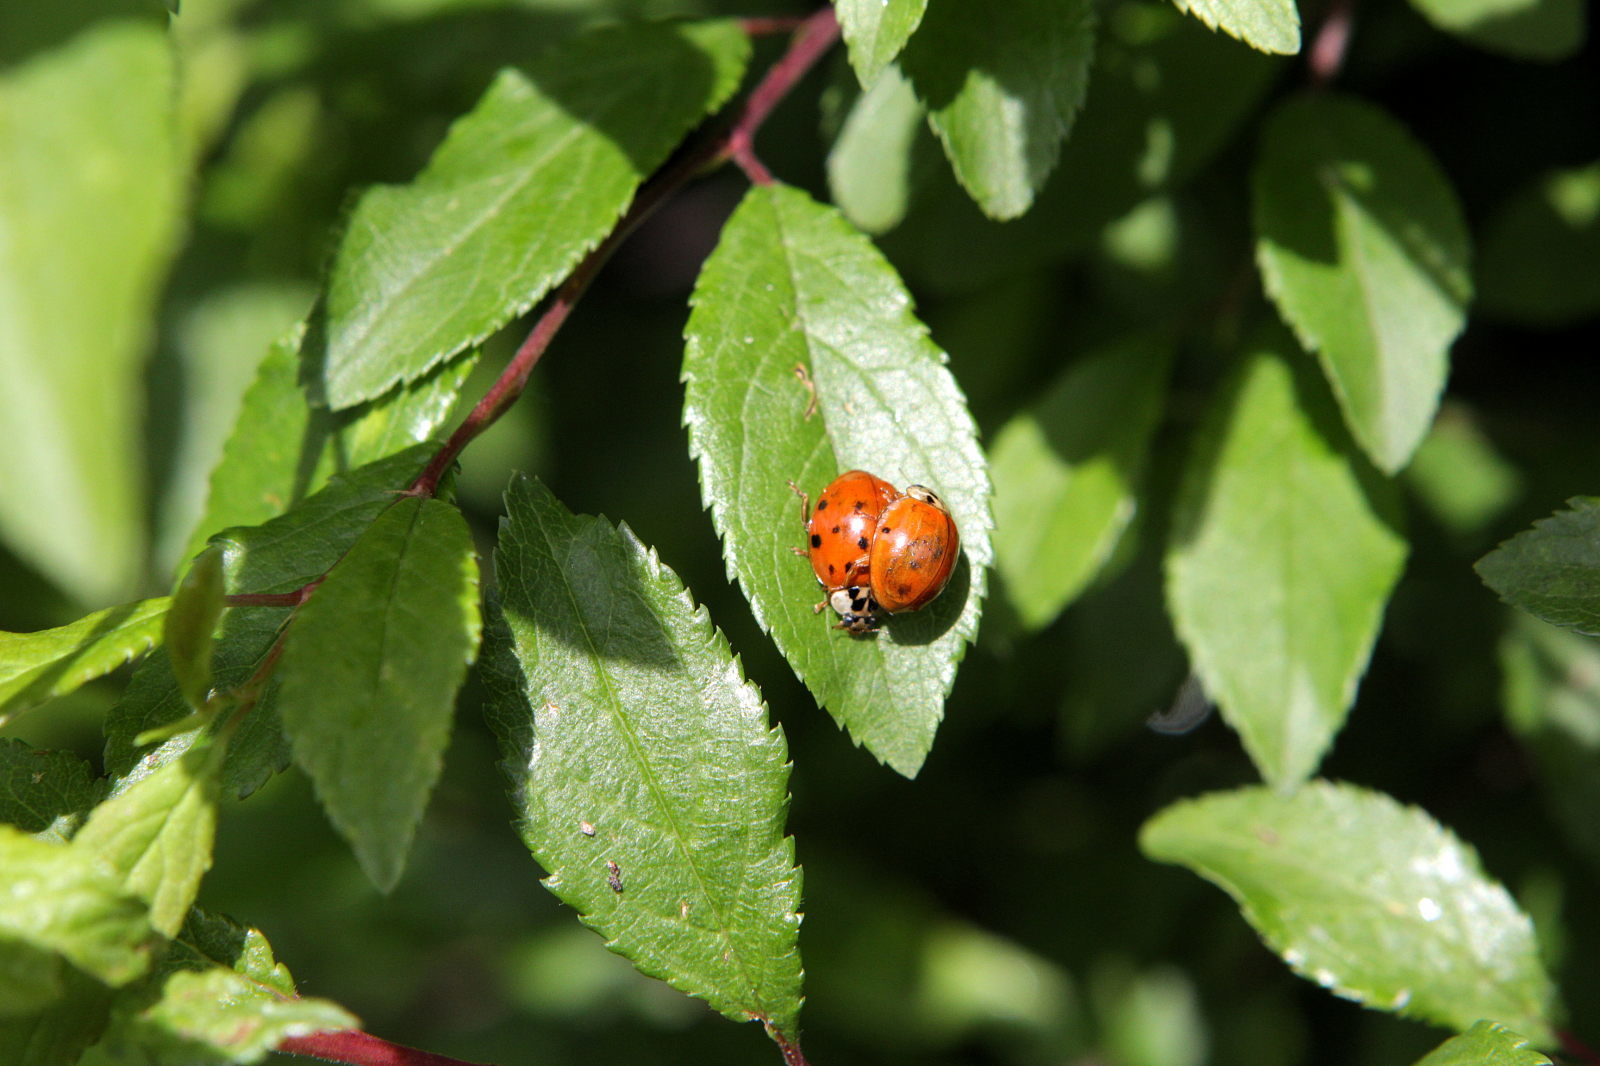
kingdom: Animalia
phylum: Arthropoda
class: Insecta
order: Coleoptera
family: Coccinellidae
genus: Harmonia
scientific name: Harmonia axyridis
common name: Harlequin ladybird
